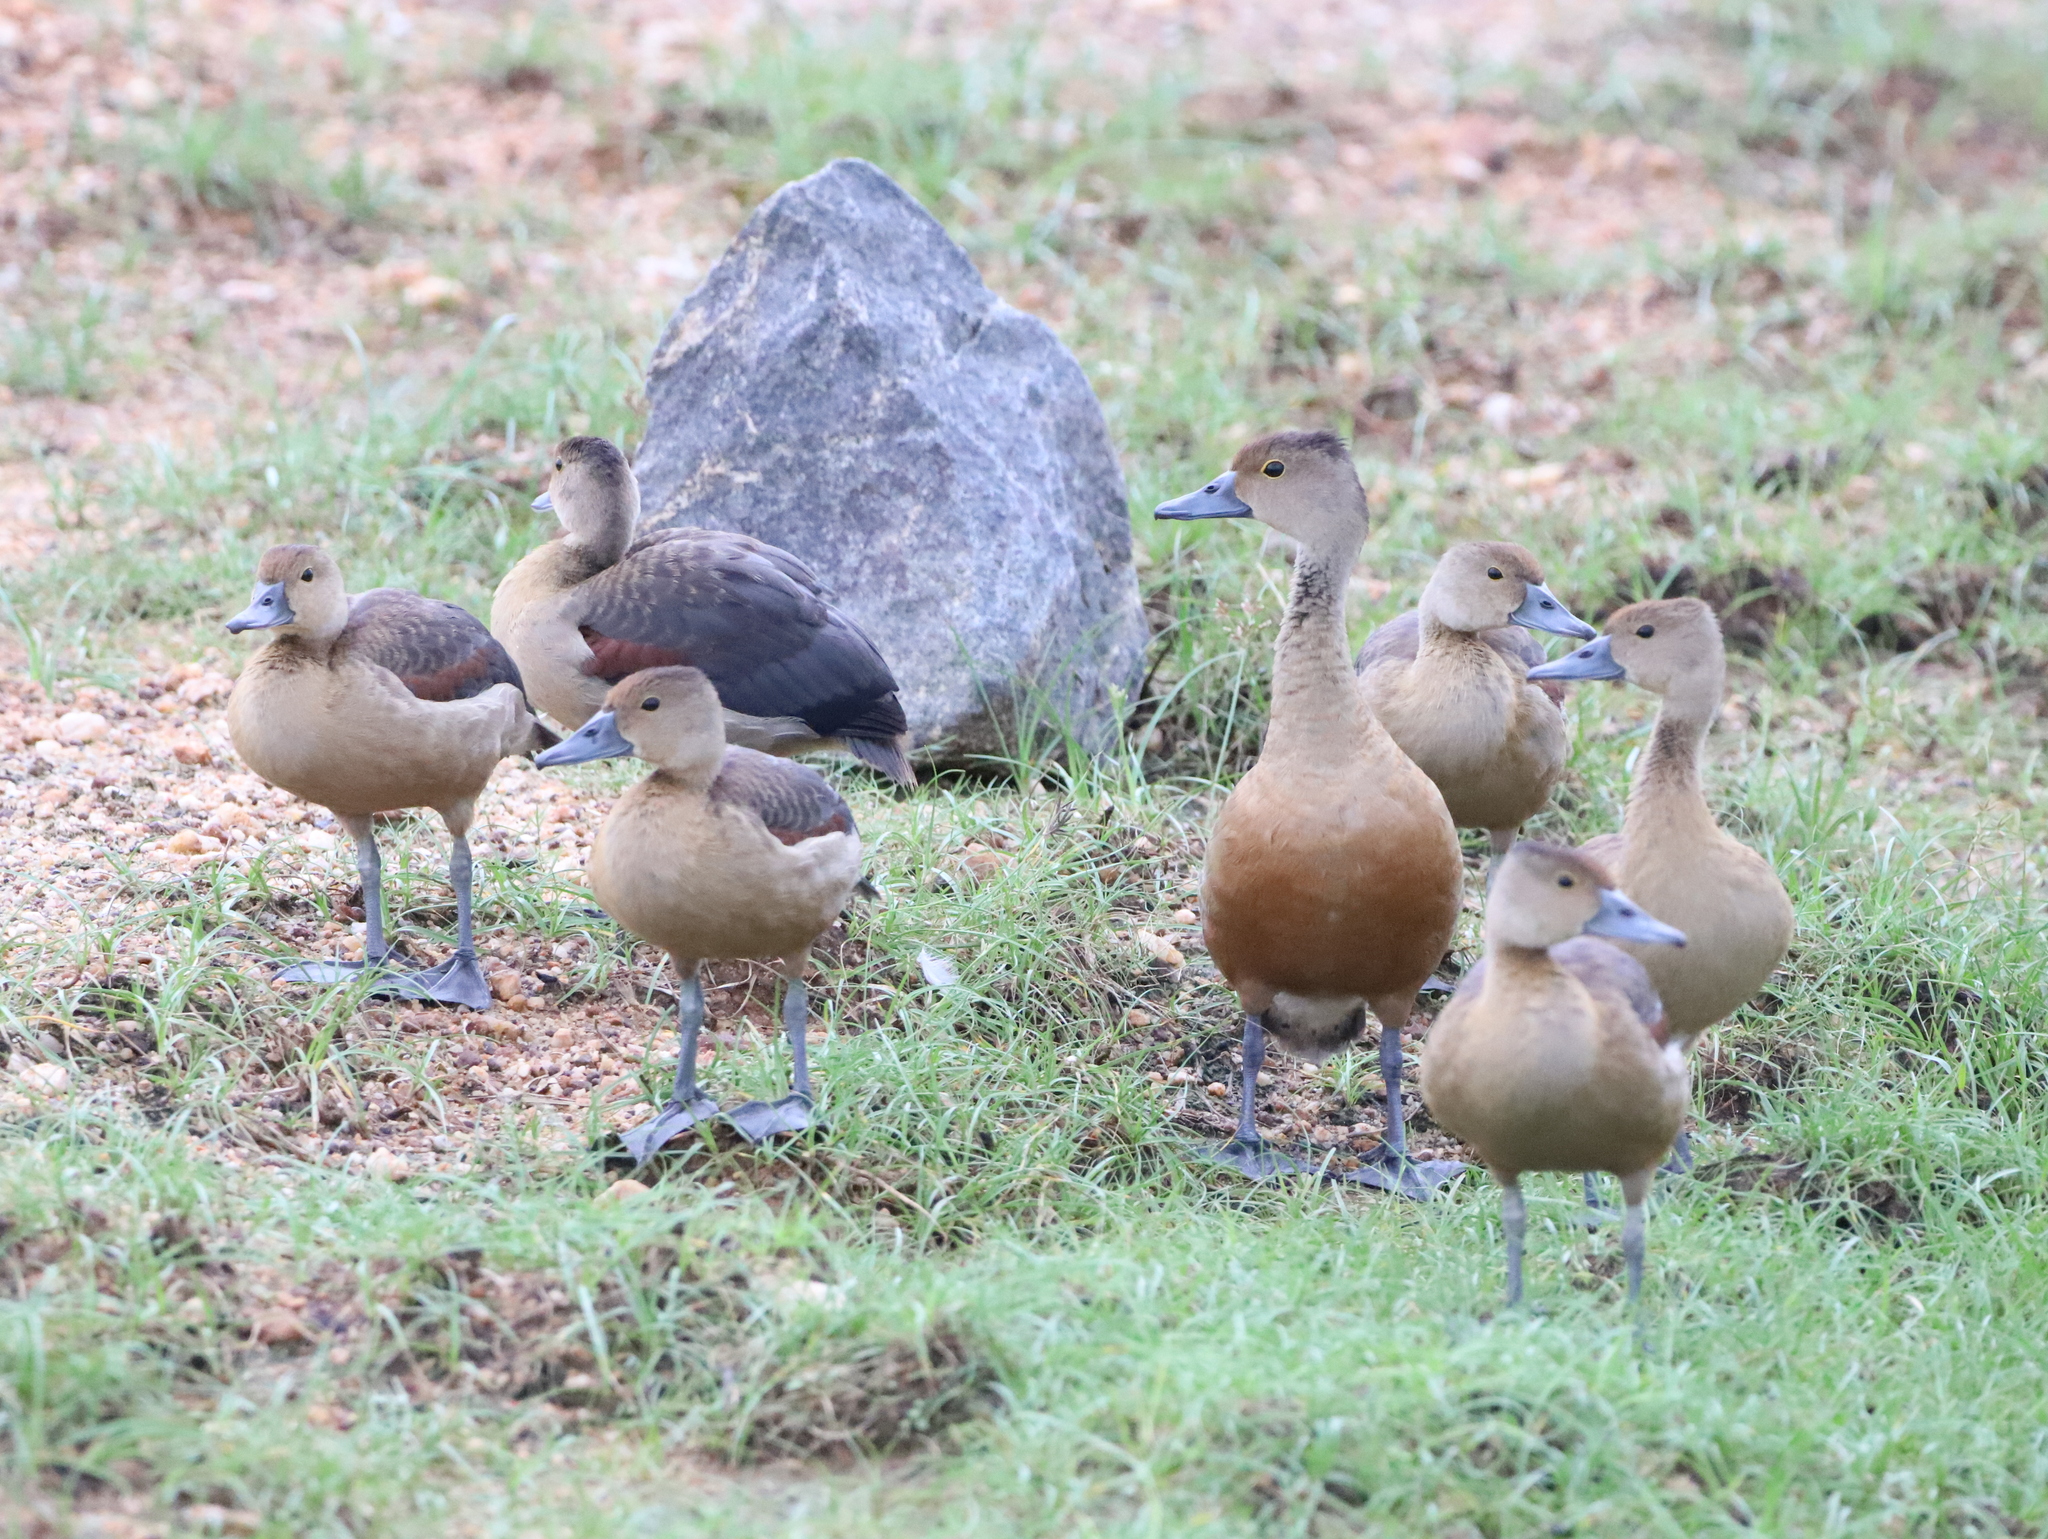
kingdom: Animalia
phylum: Chordata
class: Aves
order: Anseriformes
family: Anatidae
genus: Dendrocygna
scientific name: Dendrocygna javanica
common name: Lesser whistling-duck
